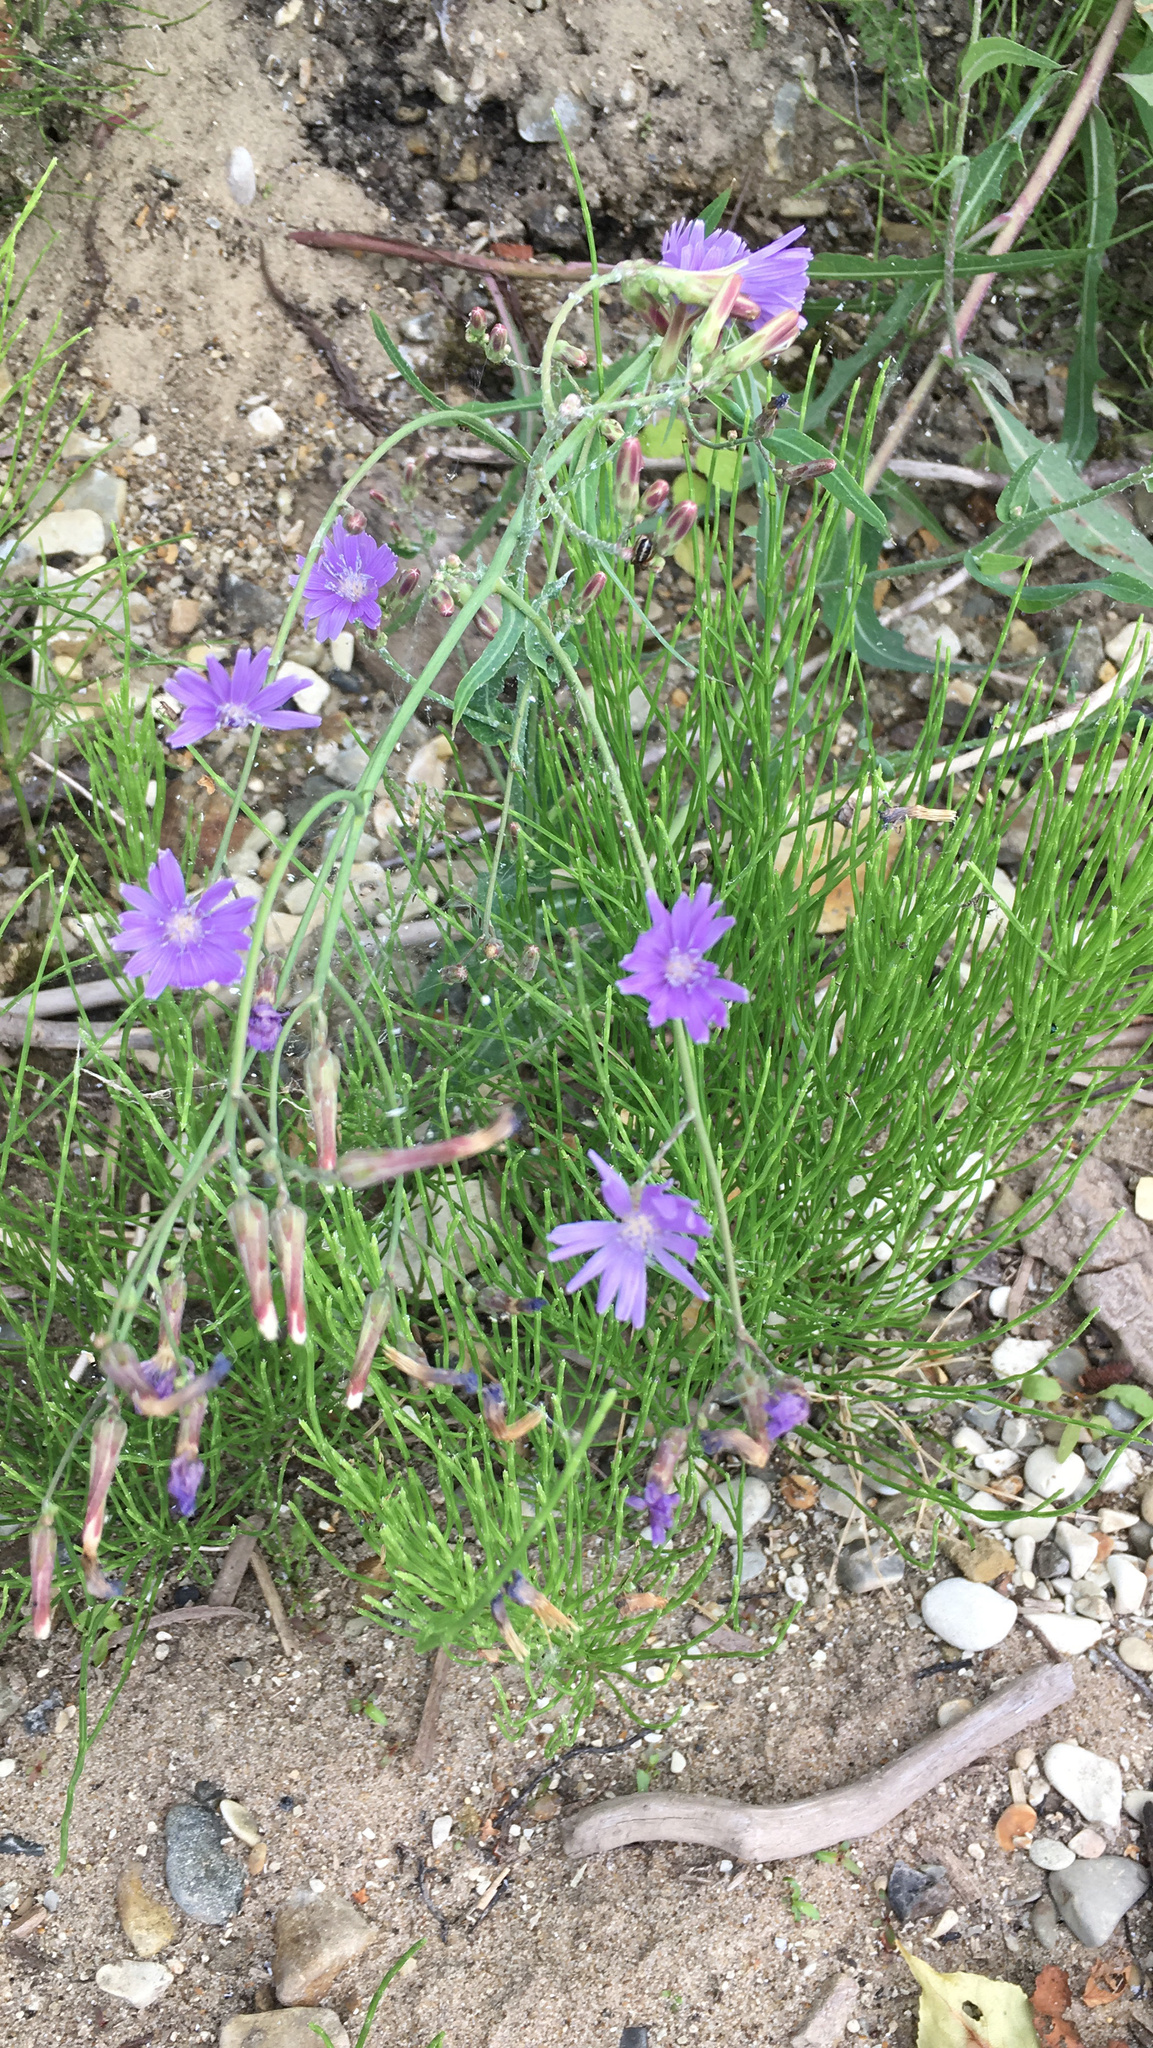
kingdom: Plantae
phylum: Tracheophyta
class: Magnoliopsida
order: Asterales
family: Asteraceae
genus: Lactuca
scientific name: Lactuca tatarica
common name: Blue lettuce
